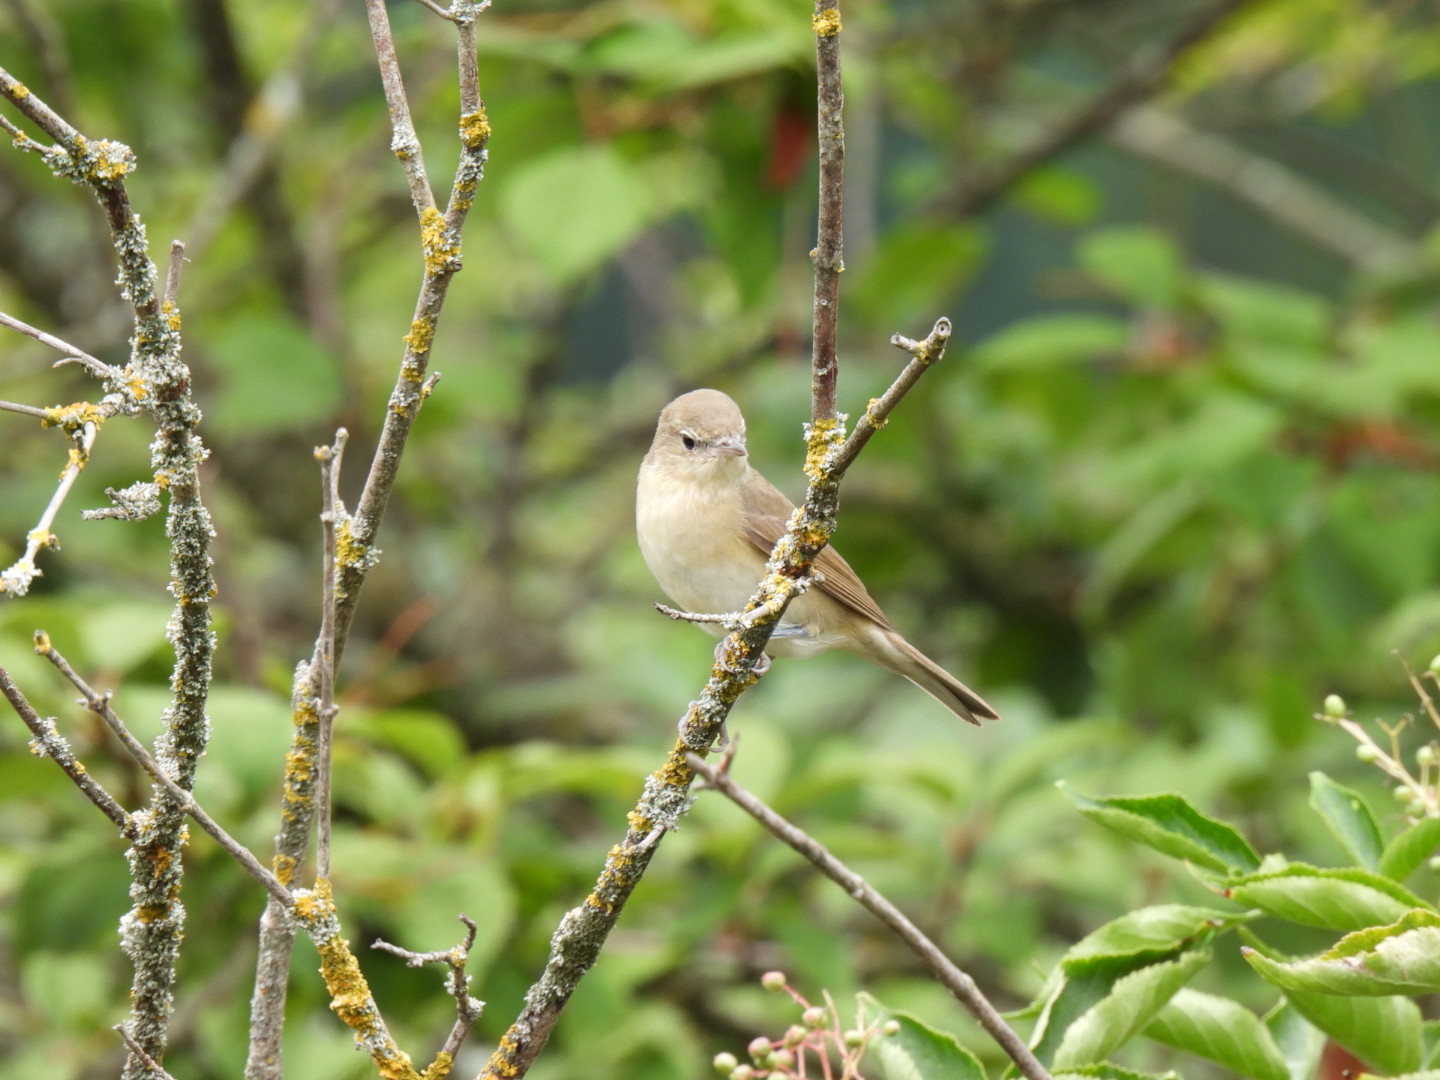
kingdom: Animalia
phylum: Chordata
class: Aves
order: Passeriformes
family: Sylviidae
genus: Sylvia
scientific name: Sylvia borin
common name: Garden warbler
